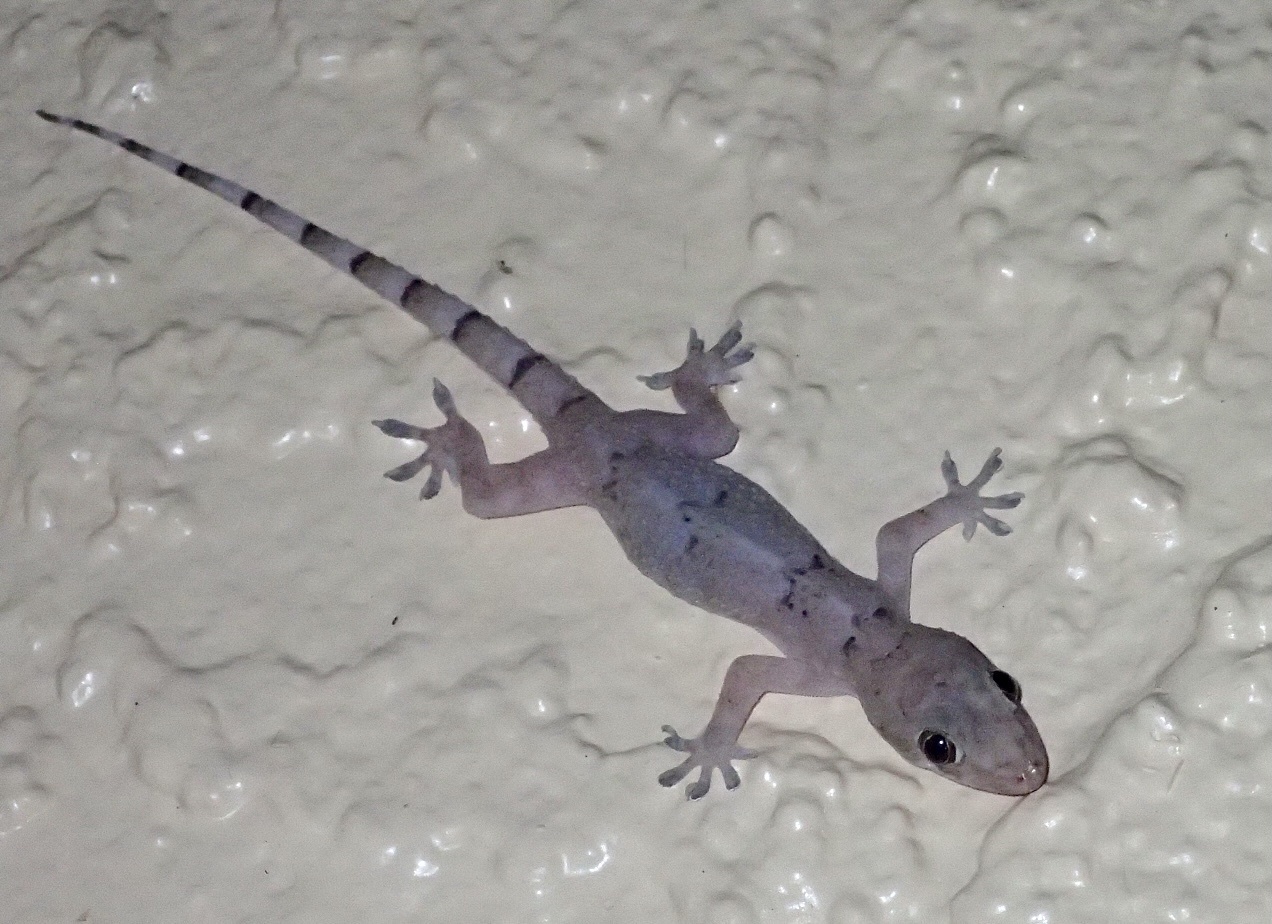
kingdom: Animalia
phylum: Chordata
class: Squamata
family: Gekkonidae
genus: Hemidactylus
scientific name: Hemidactylus mabouia
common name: House gecko
